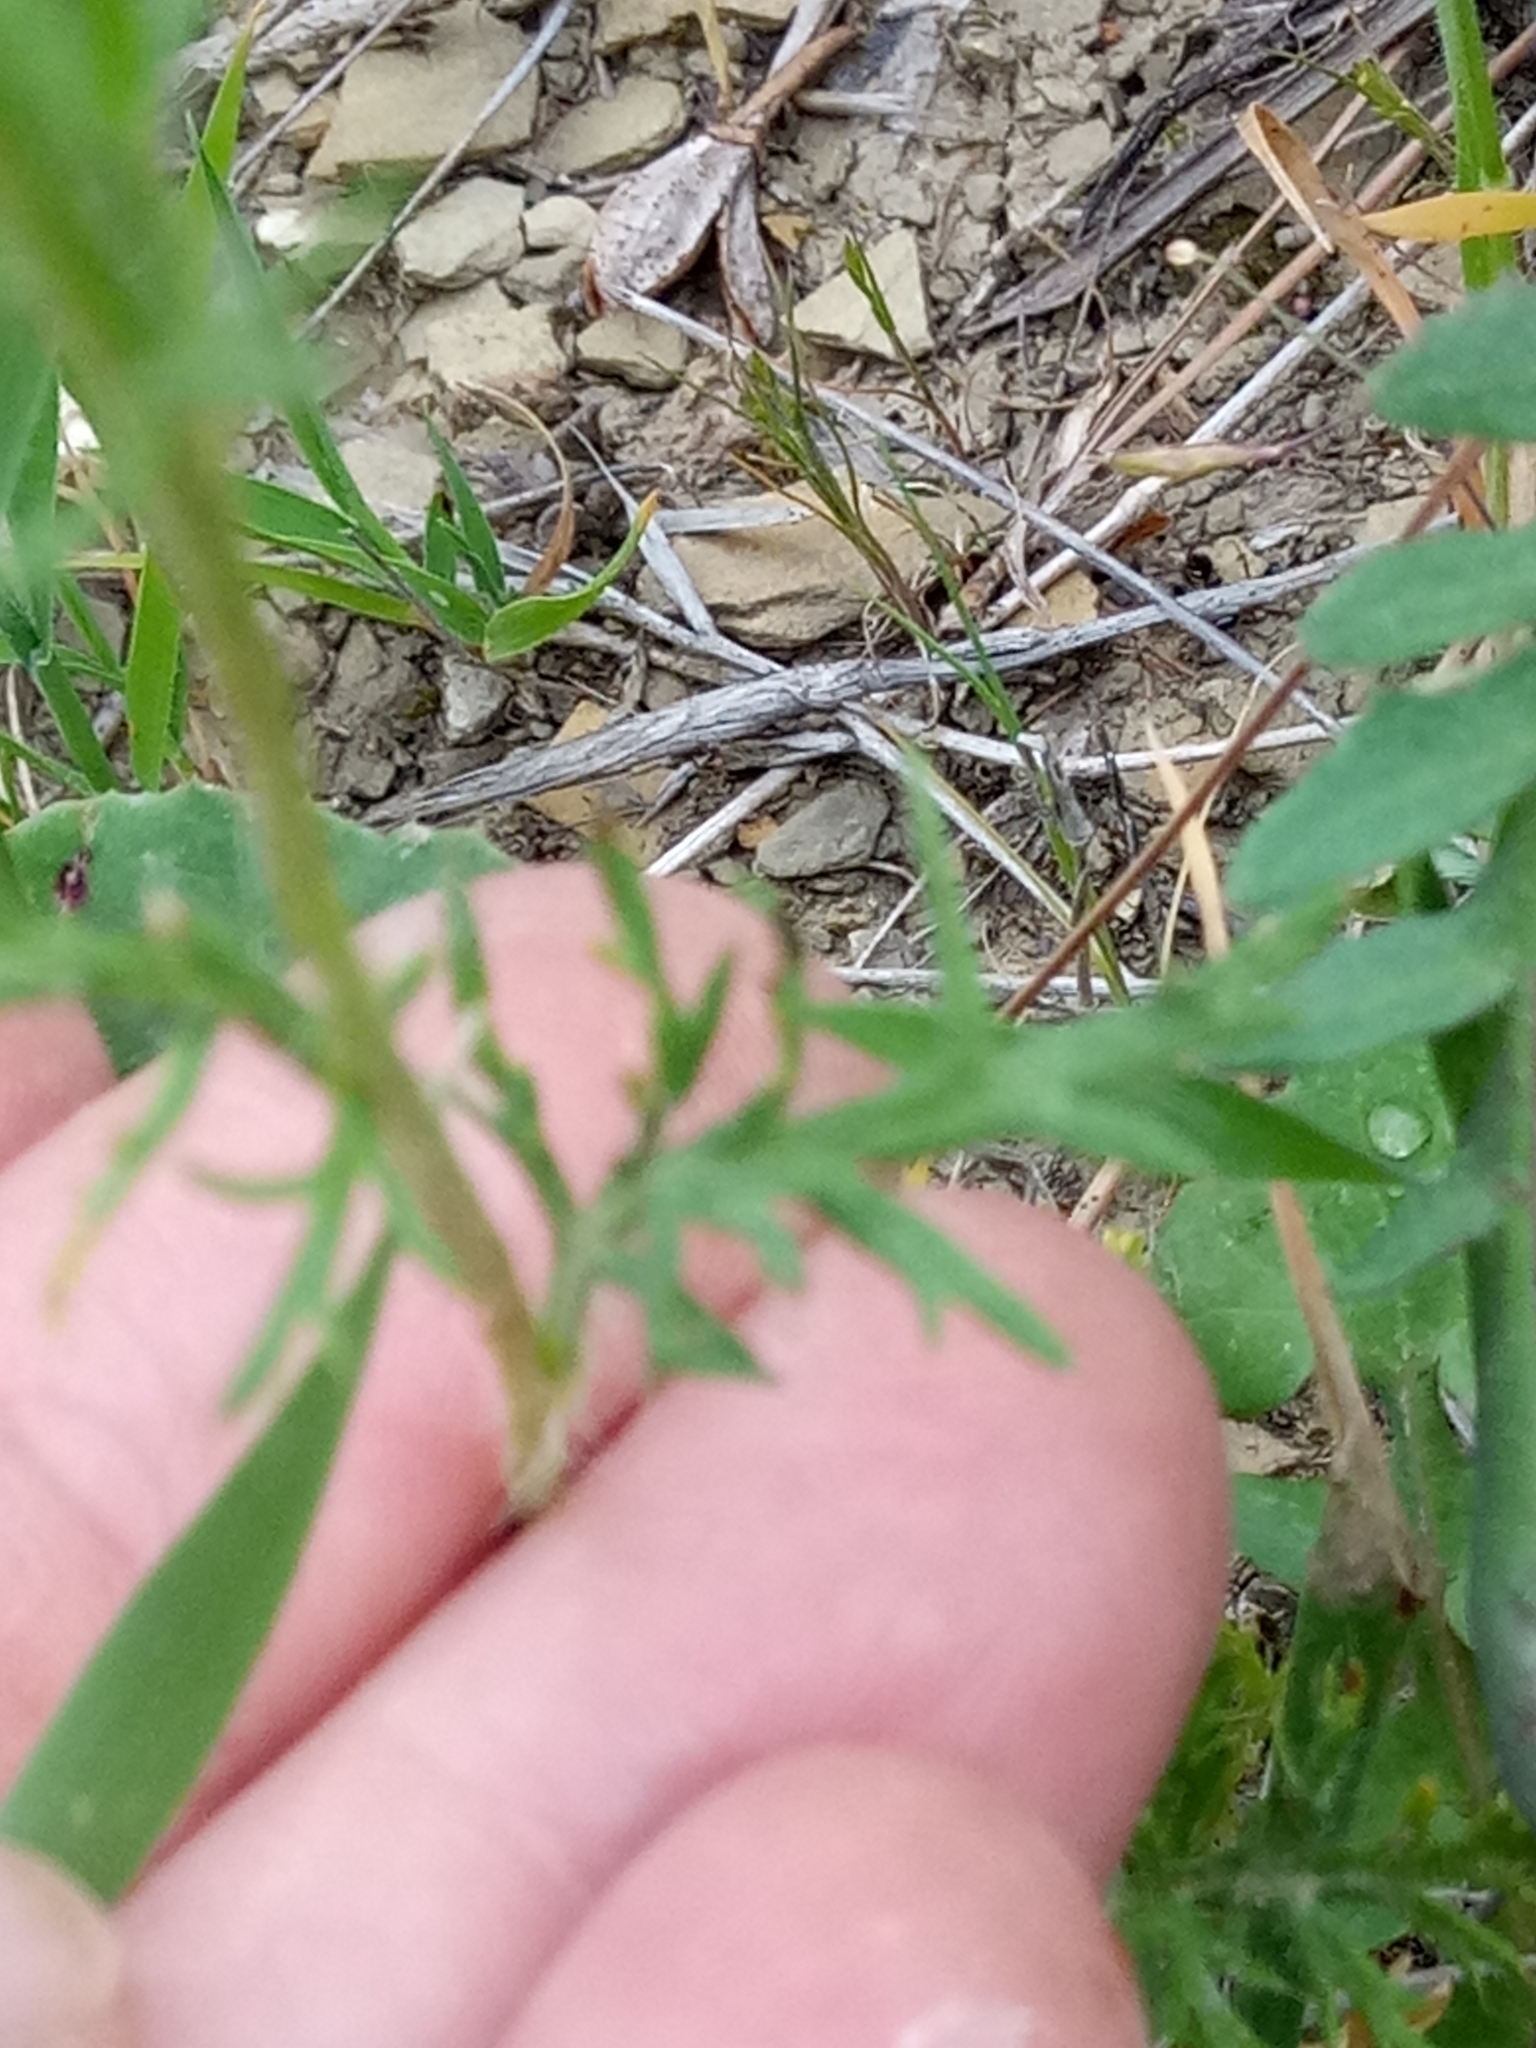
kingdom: Plantae
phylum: Tracheophyta
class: Magnoliopsida
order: Ranunculales
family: Papaveraceae
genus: Roemeria
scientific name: Roemeria hispida
